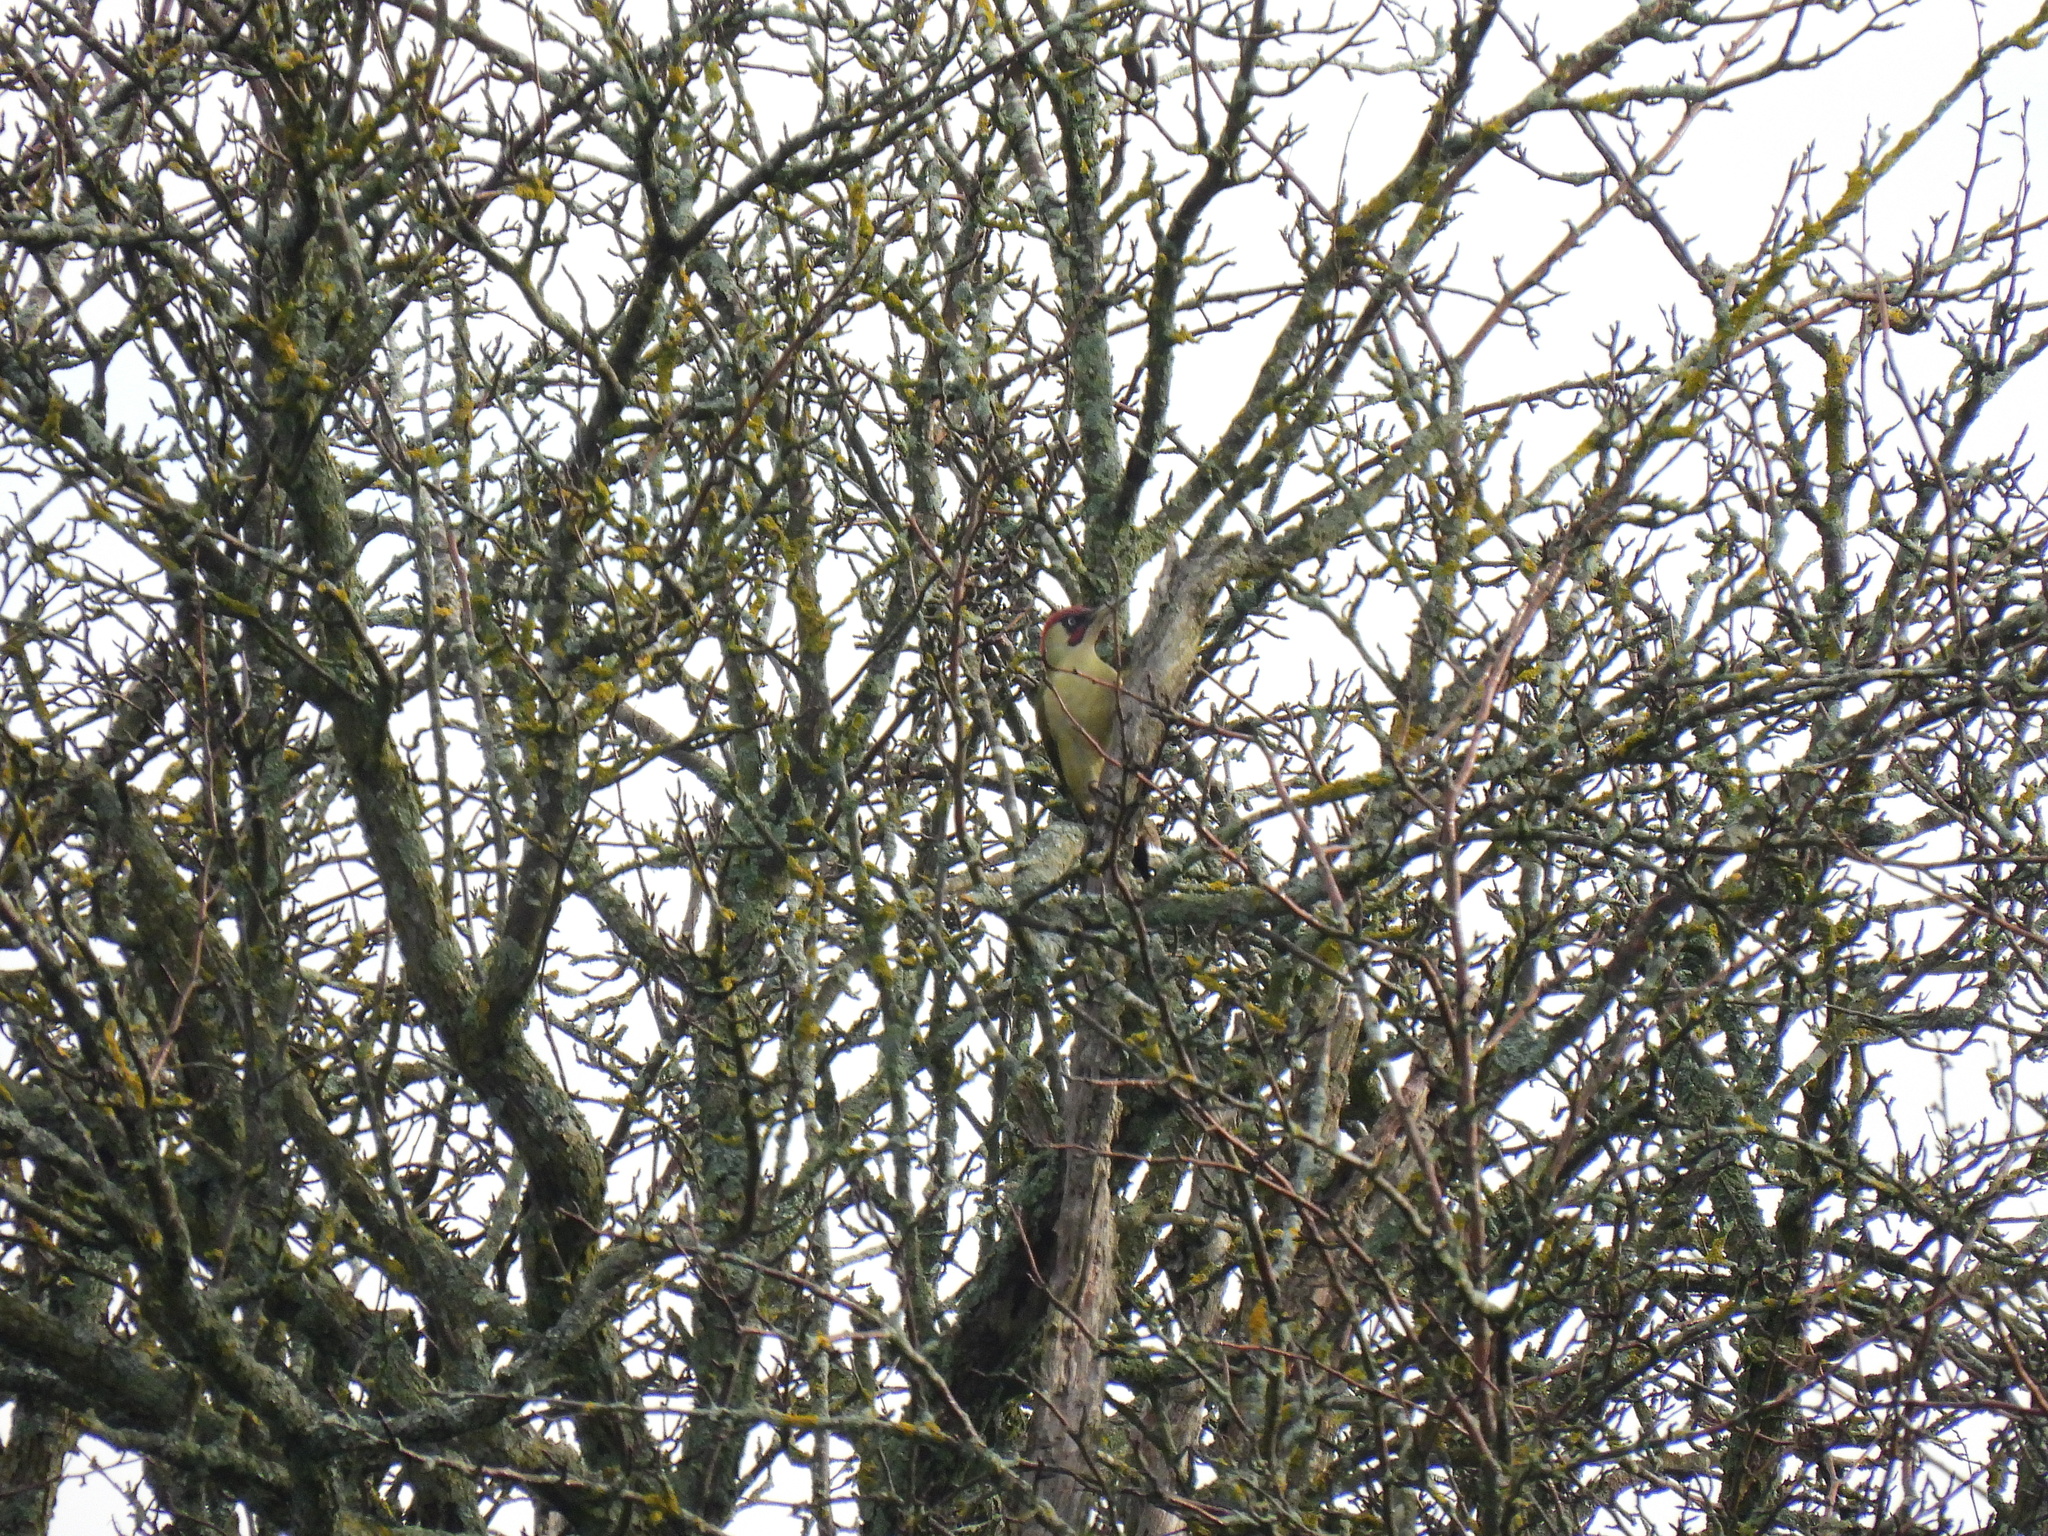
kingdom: Animalia
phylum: Chordata
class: Aves
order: Piciformes
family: Picidae
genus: Picus
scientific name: Picus viridis
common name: European green woodpecker
